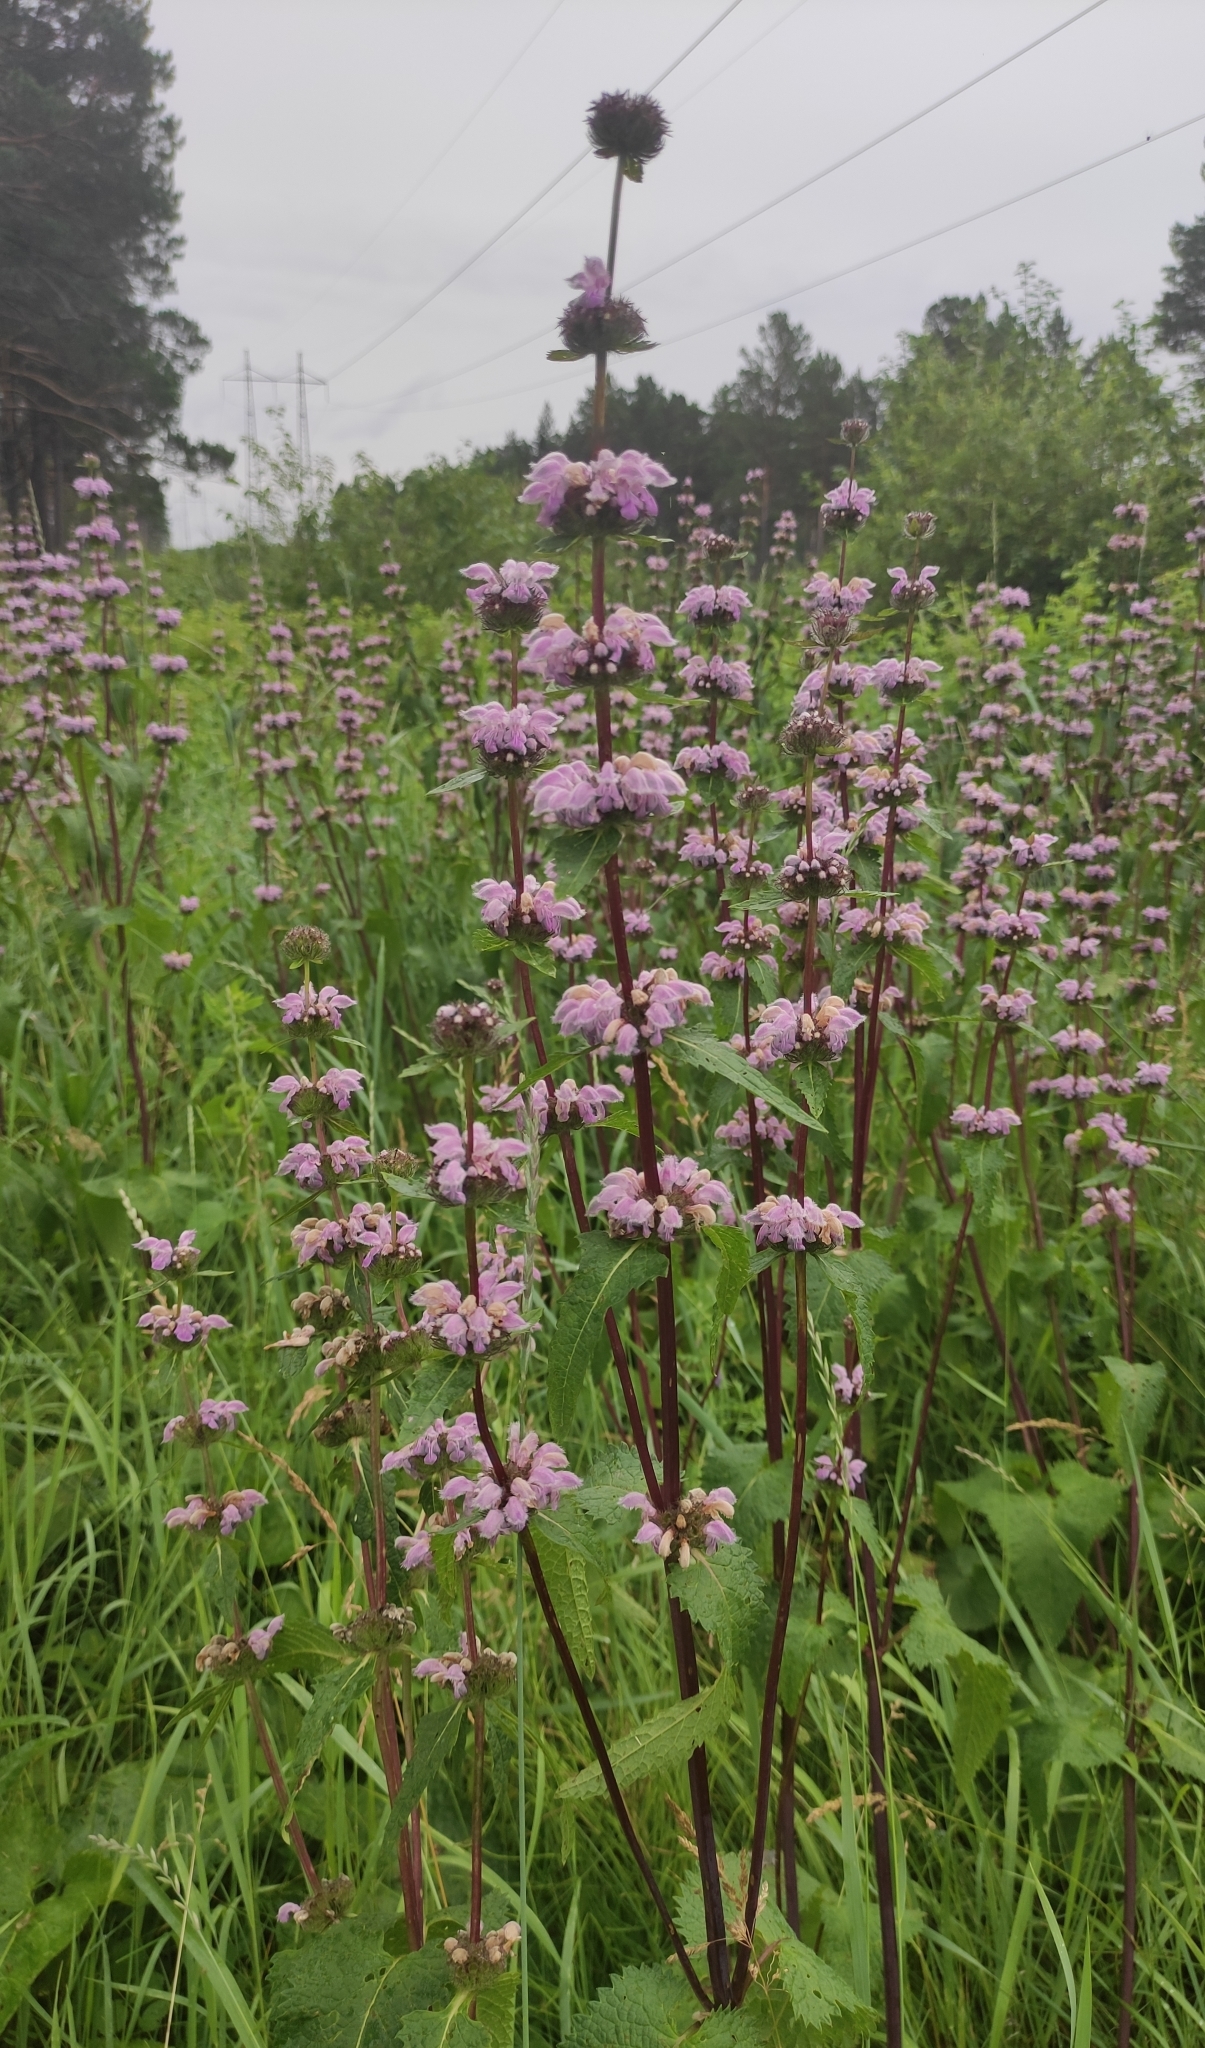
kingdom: Plantae
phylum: Tracheophyta
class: Magnoliopsida
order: Lamiales
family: Lamiaceae
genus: Phlomoides
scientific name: Phlomoides tuberosa
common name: Tuberous jerusalem sage
